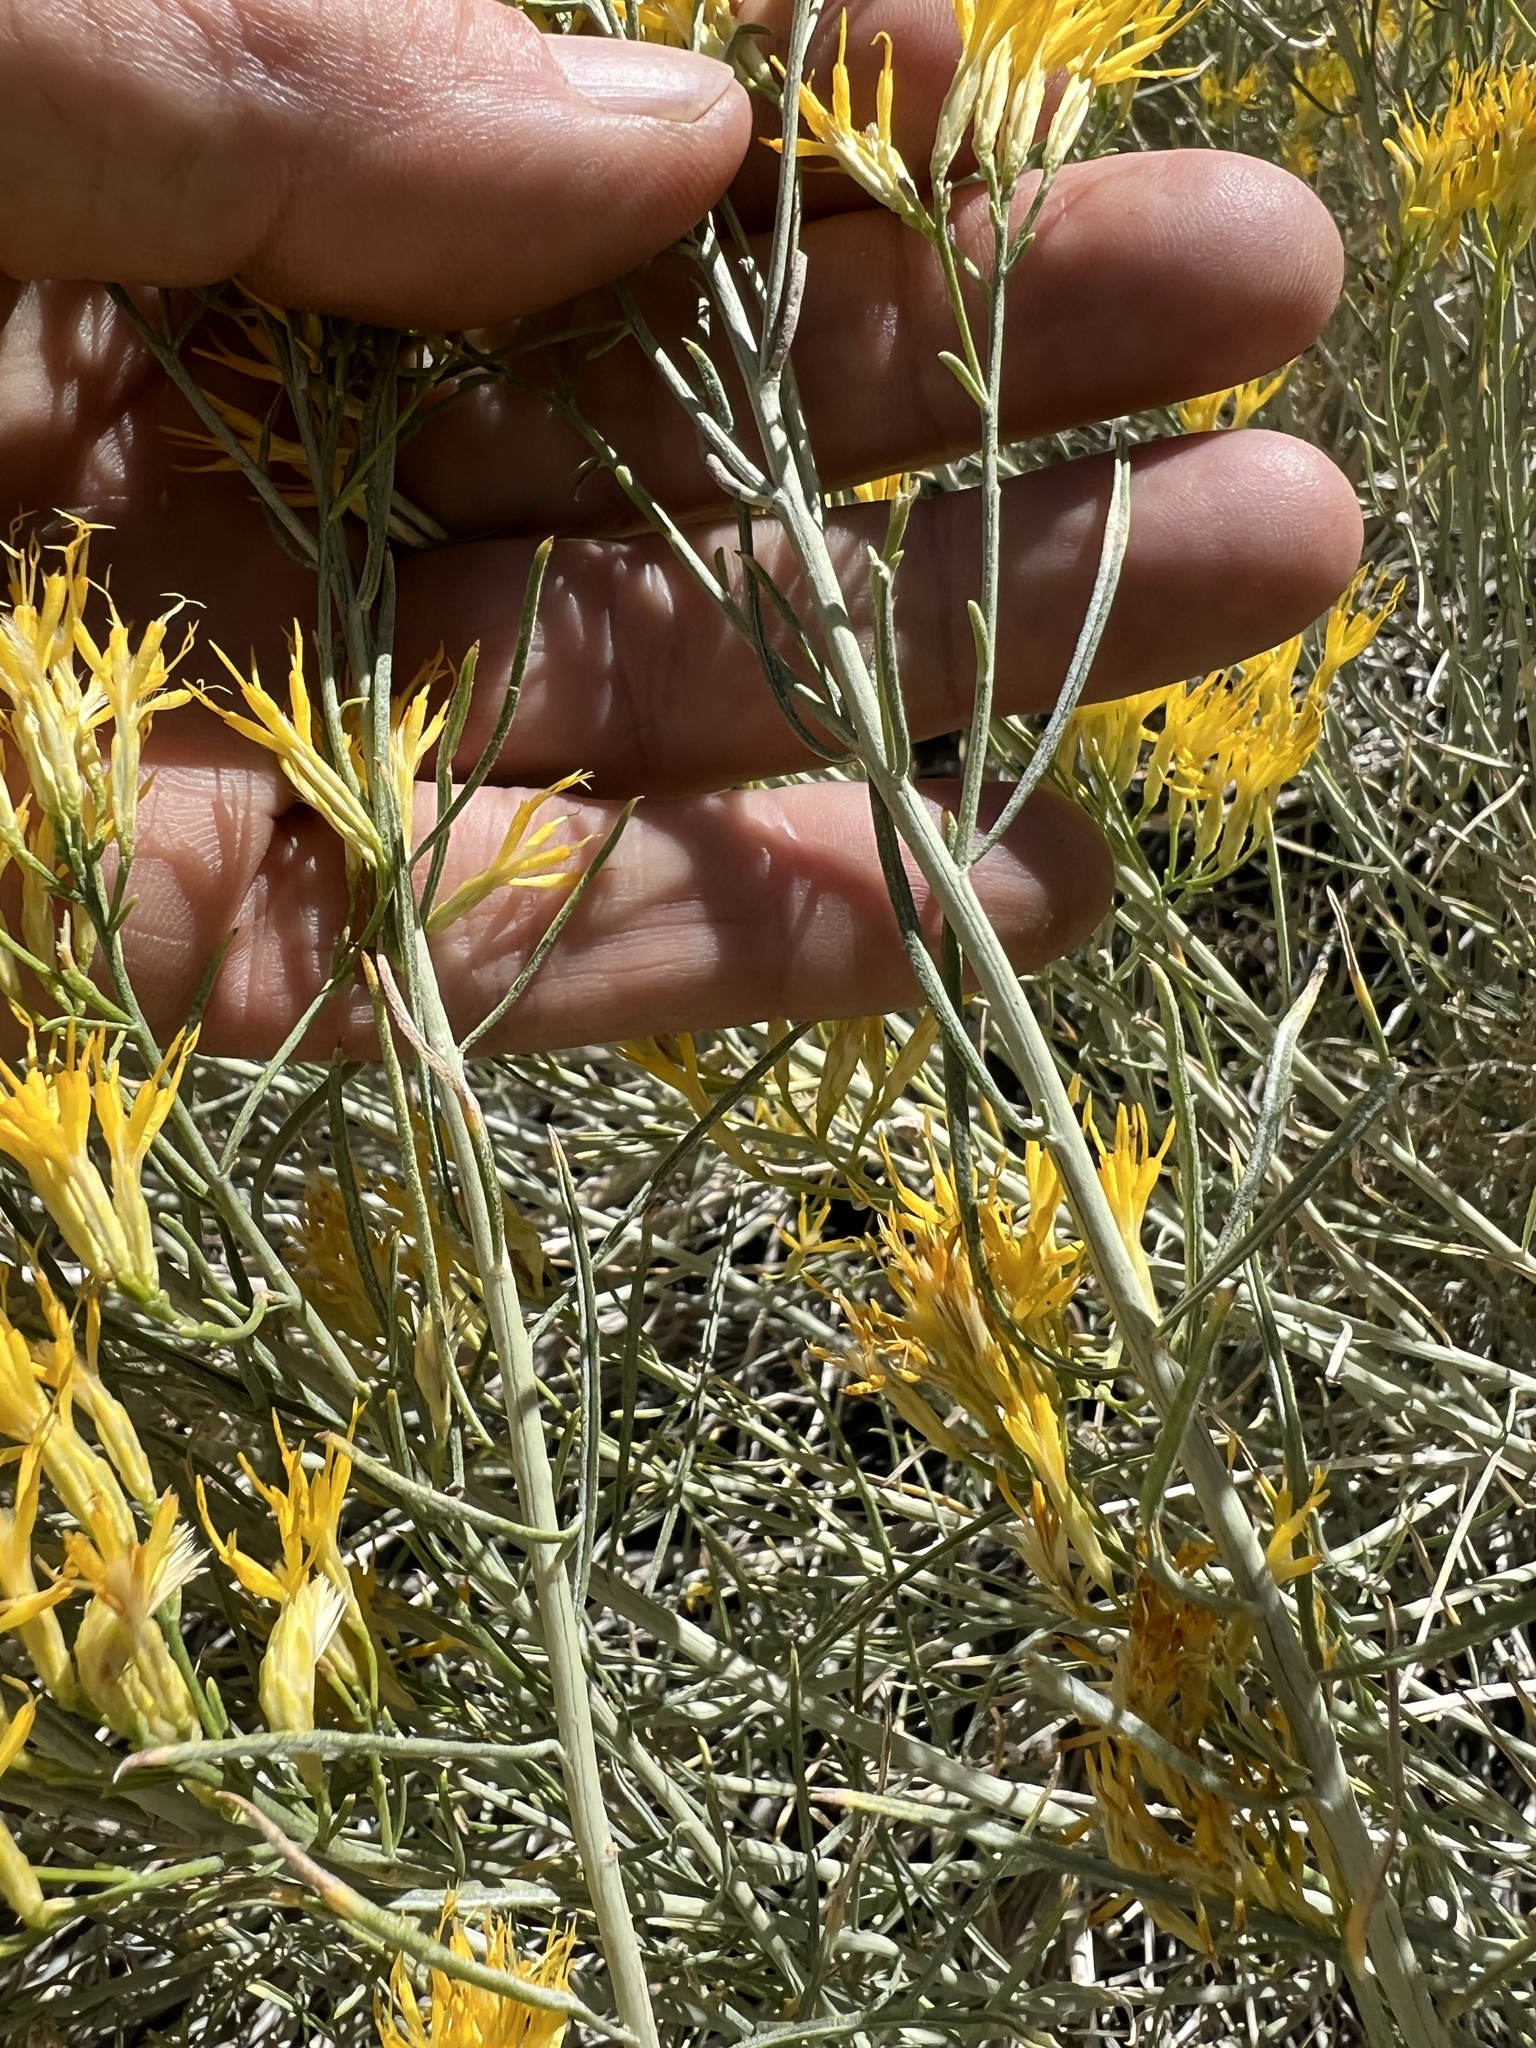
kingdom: Plantae
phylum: Tracheophyta
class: Magnoliopsida
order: Asterales
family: Asteraceae
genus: Ericameria
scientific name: Ericameria nauseosa
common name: Rubber rabbitbrush
